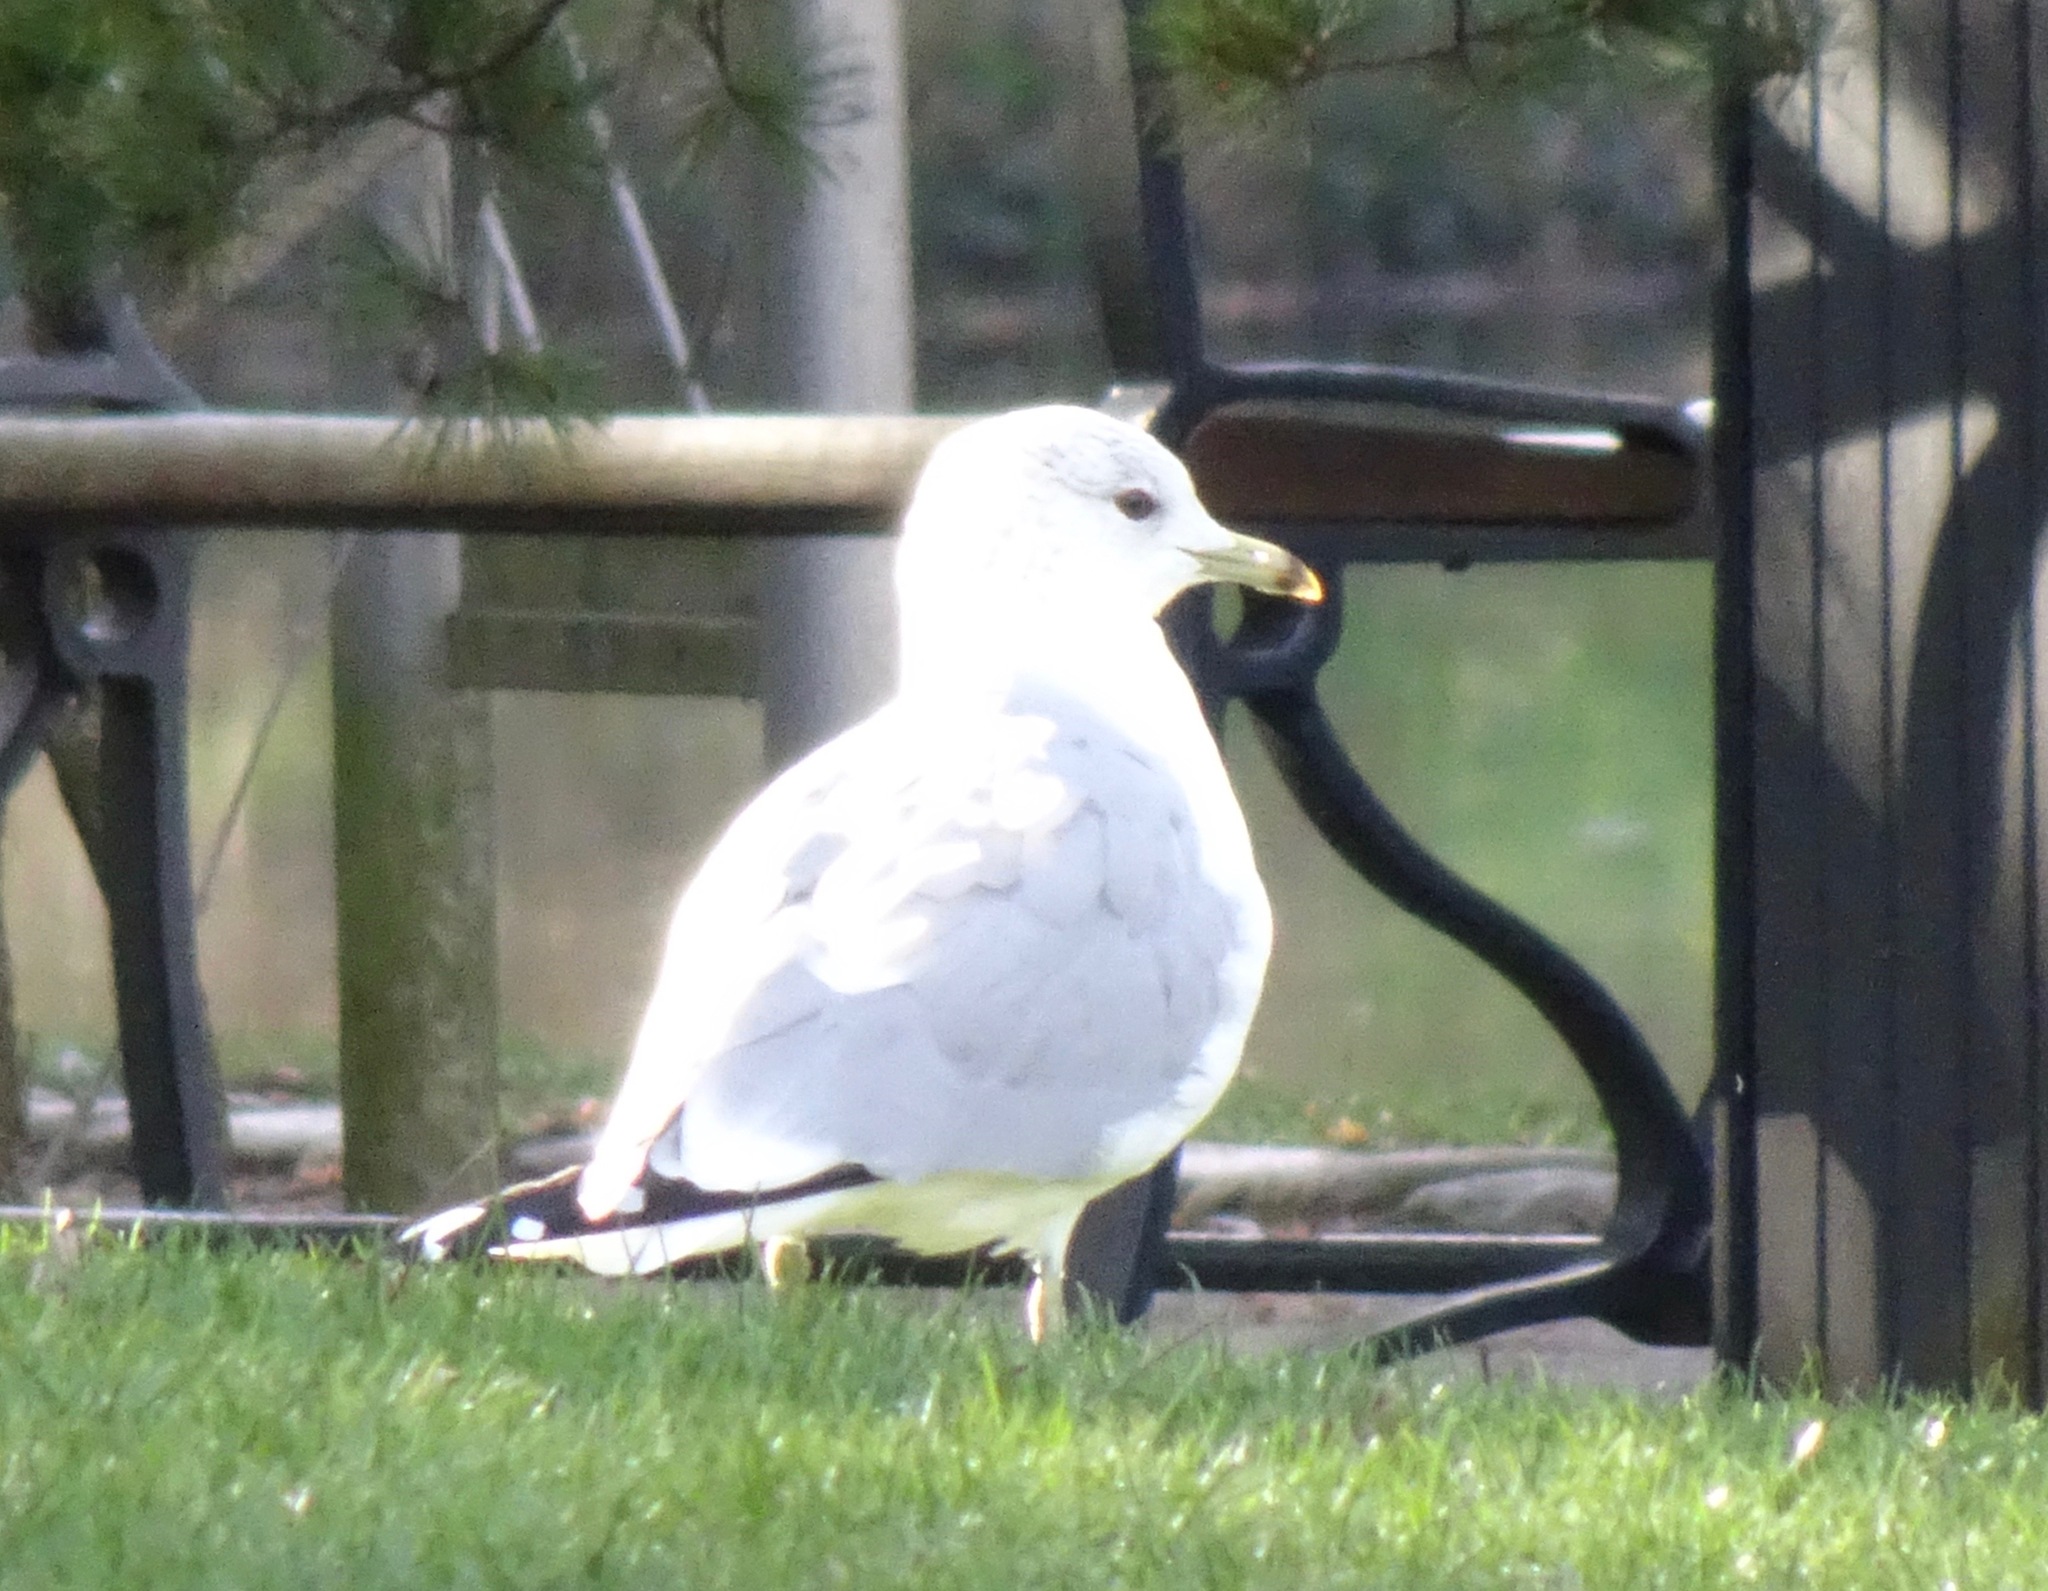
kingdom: Animalia
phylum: Chordata
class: Aves
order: Charadriiformes
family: Laridae
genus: Larus
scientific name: Larus canus
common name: Mew gull
